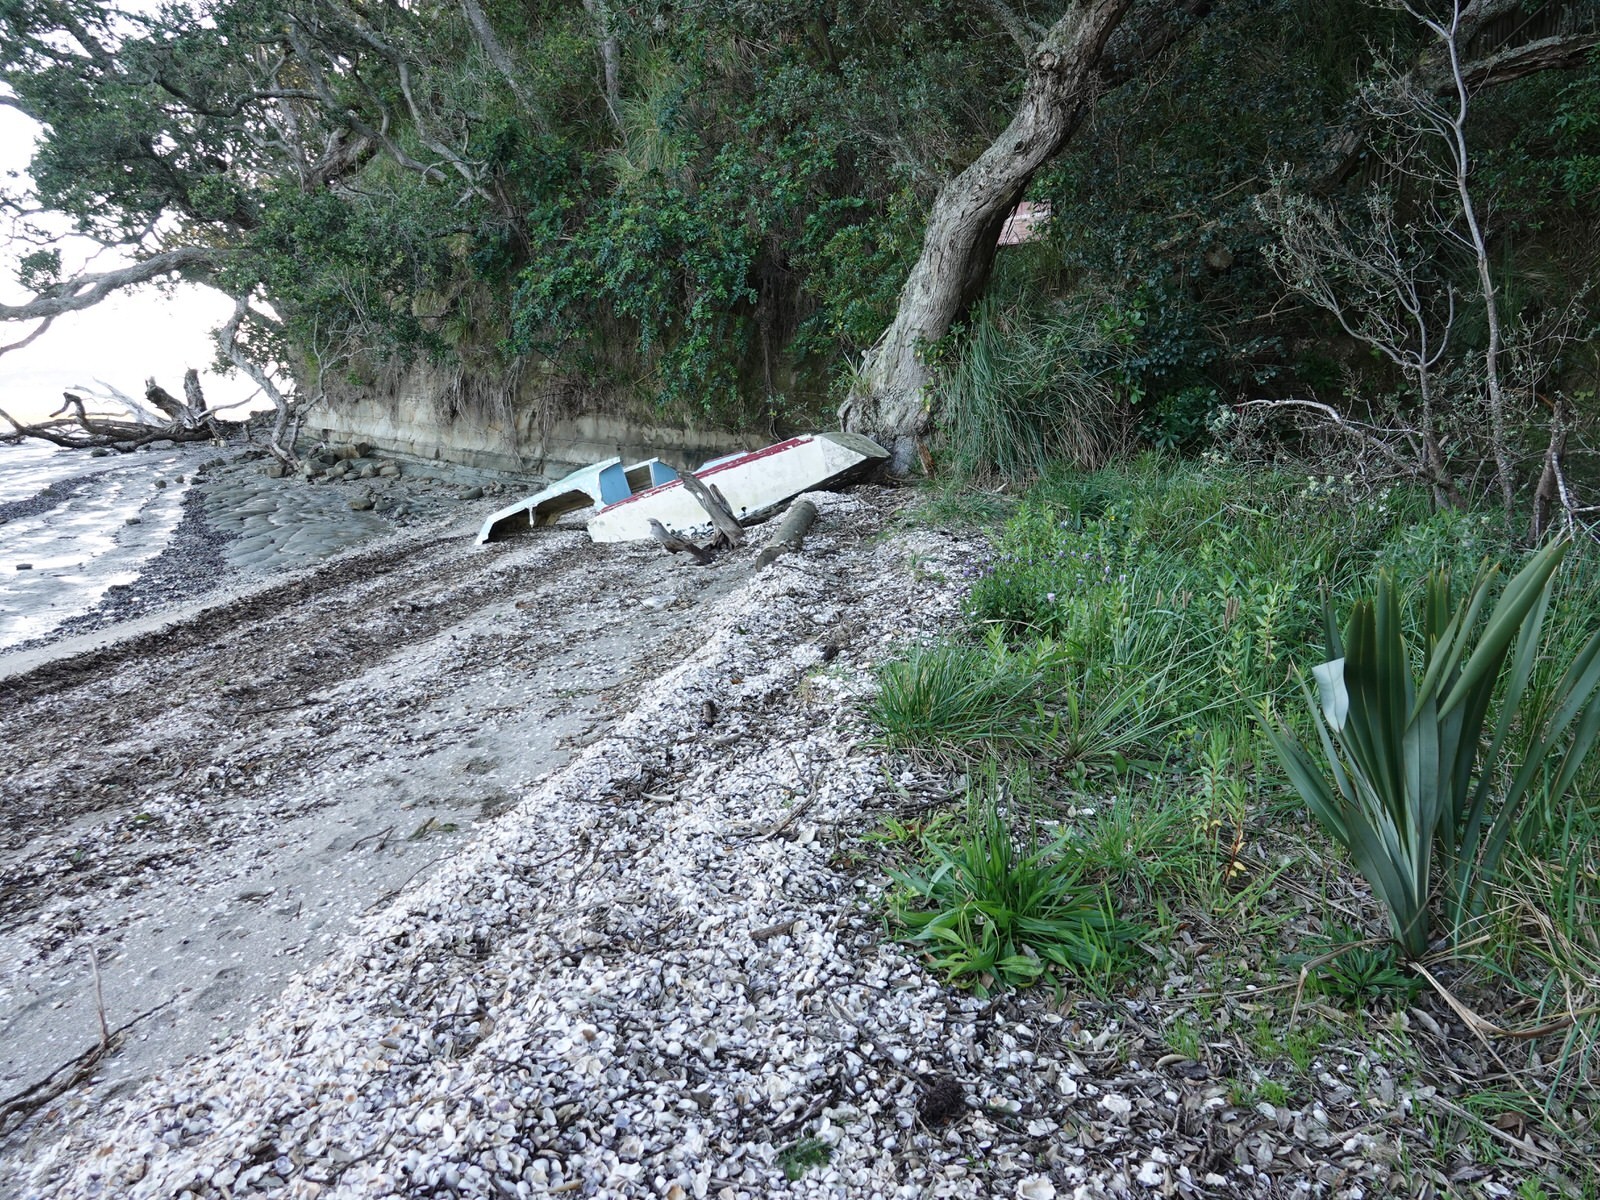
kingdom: Plantae
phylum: Tracheophyta
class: Magnoliopsida
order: Lamiales
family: Plantaginaceae
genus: Plantago
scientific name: Plantago lanceolata
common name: Ribwort plantain
